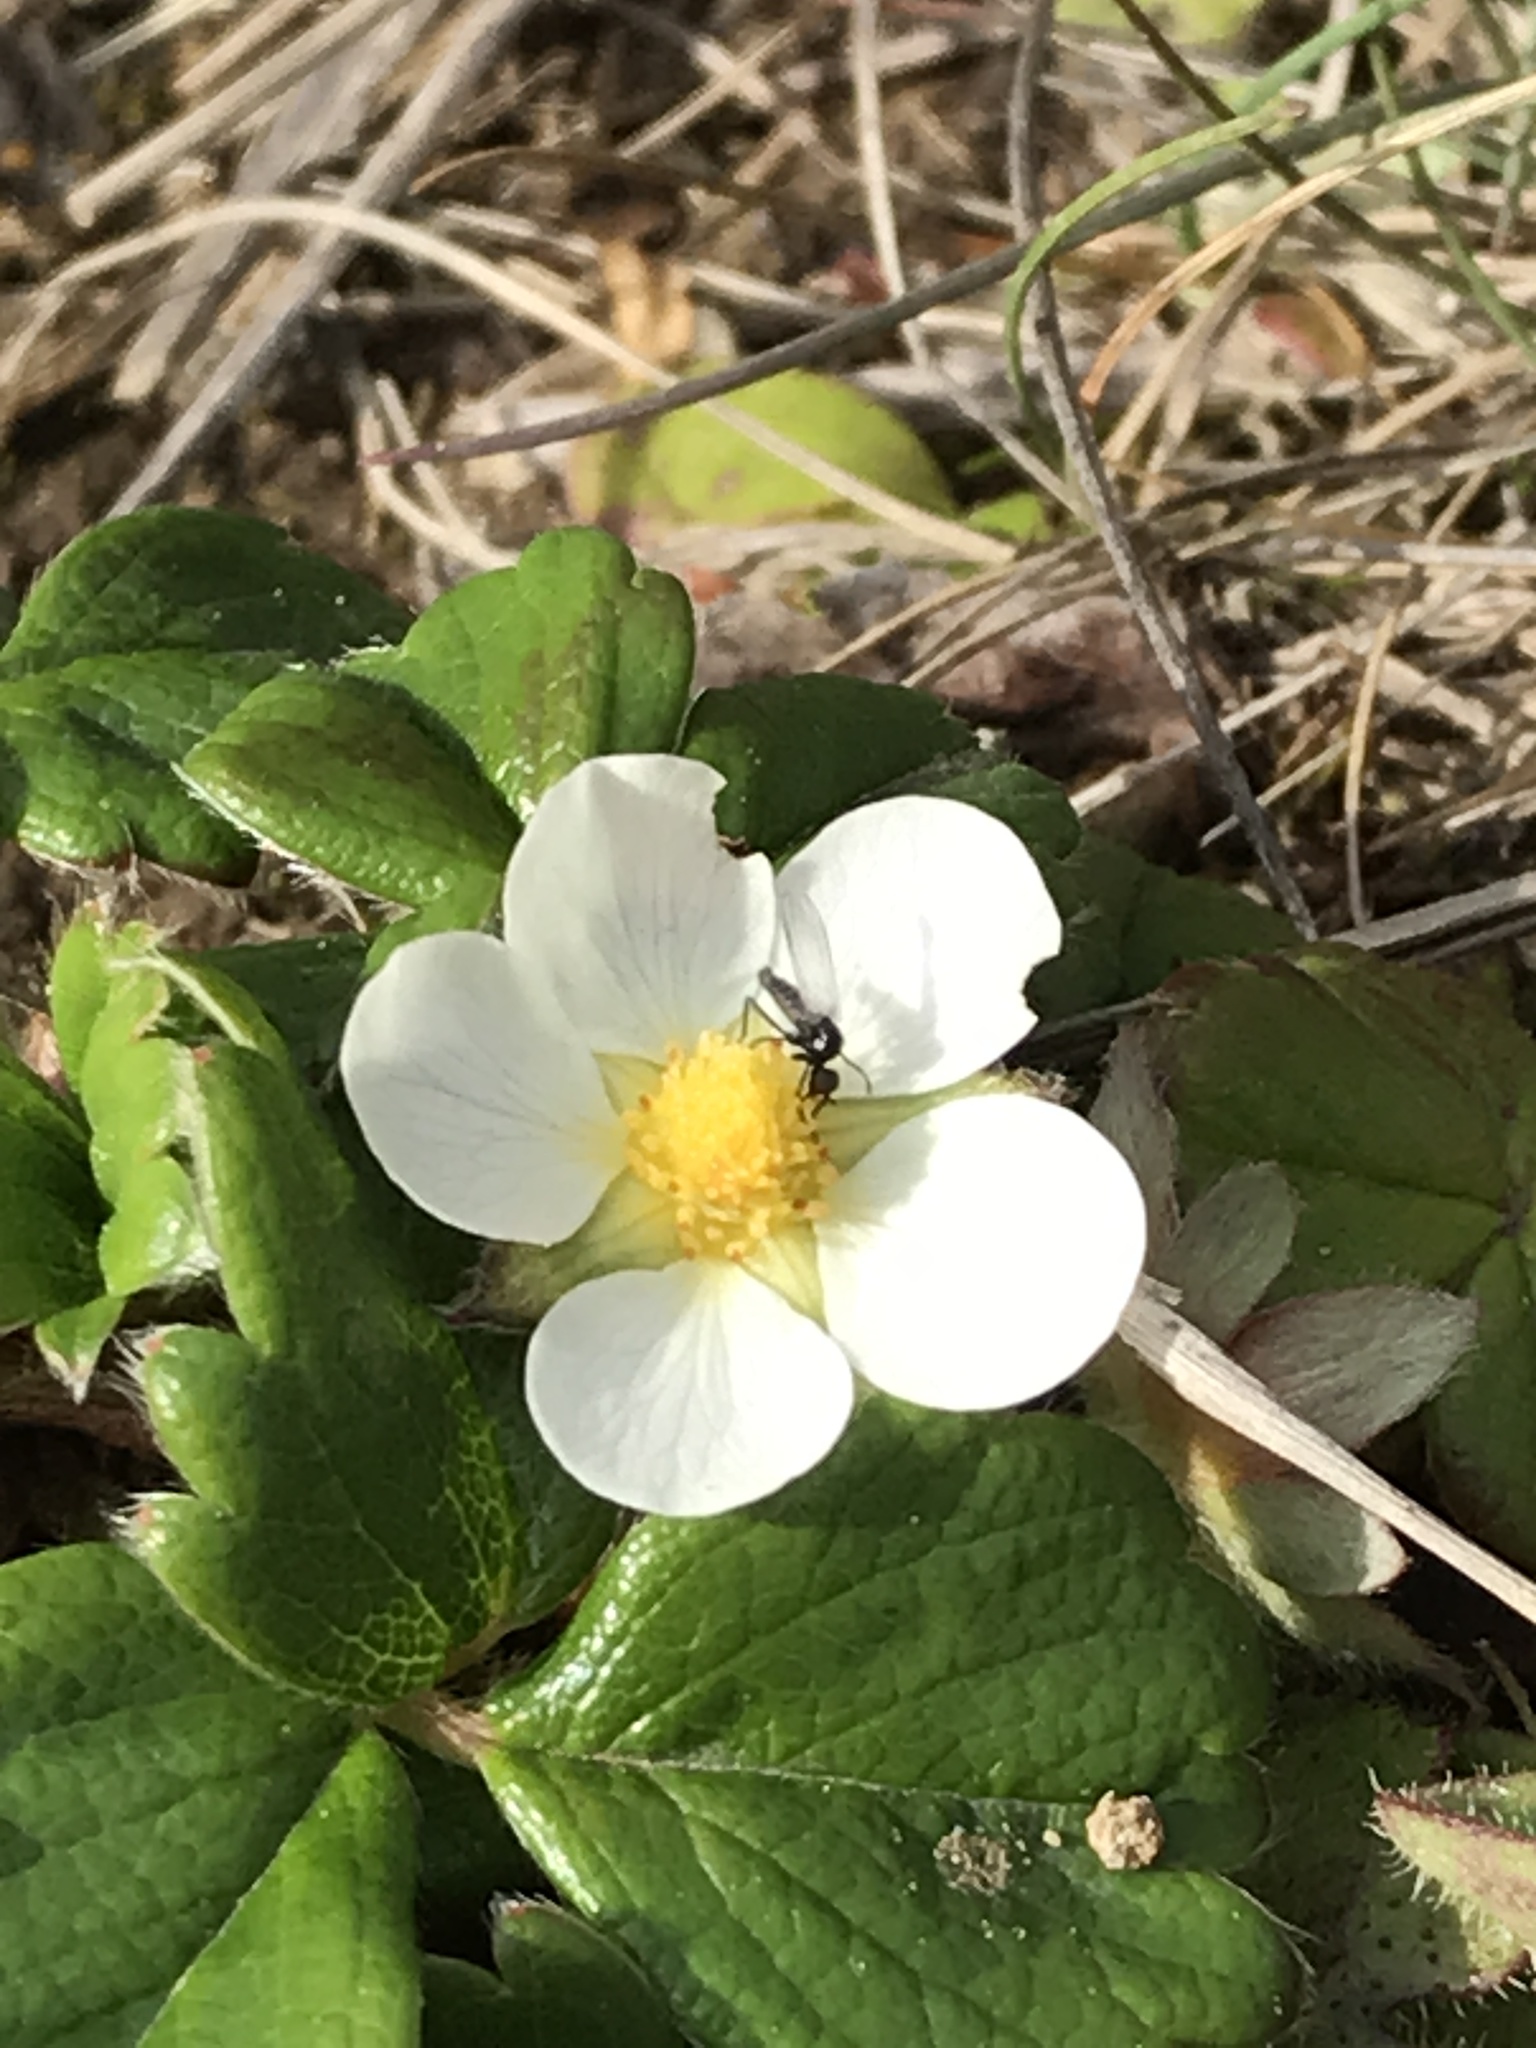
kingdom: Plantae
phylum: Tracheophyta
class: Magnoliopsida
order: Rosales
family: Rosaceae
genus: Fragaria
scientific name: Fragaria chiloensis
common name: Beach strawberry
